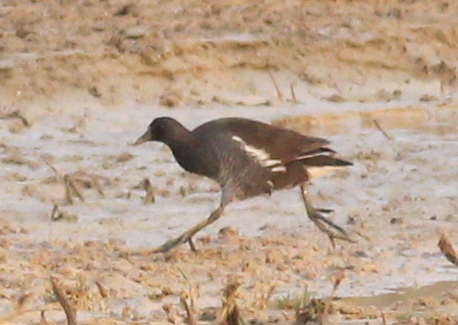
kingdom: Animalia
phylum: Chordata
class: Aves
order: Gruiformes
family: Rallidae
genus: Gallinula
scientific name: Gallinula chloropus
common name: Common moorhen
